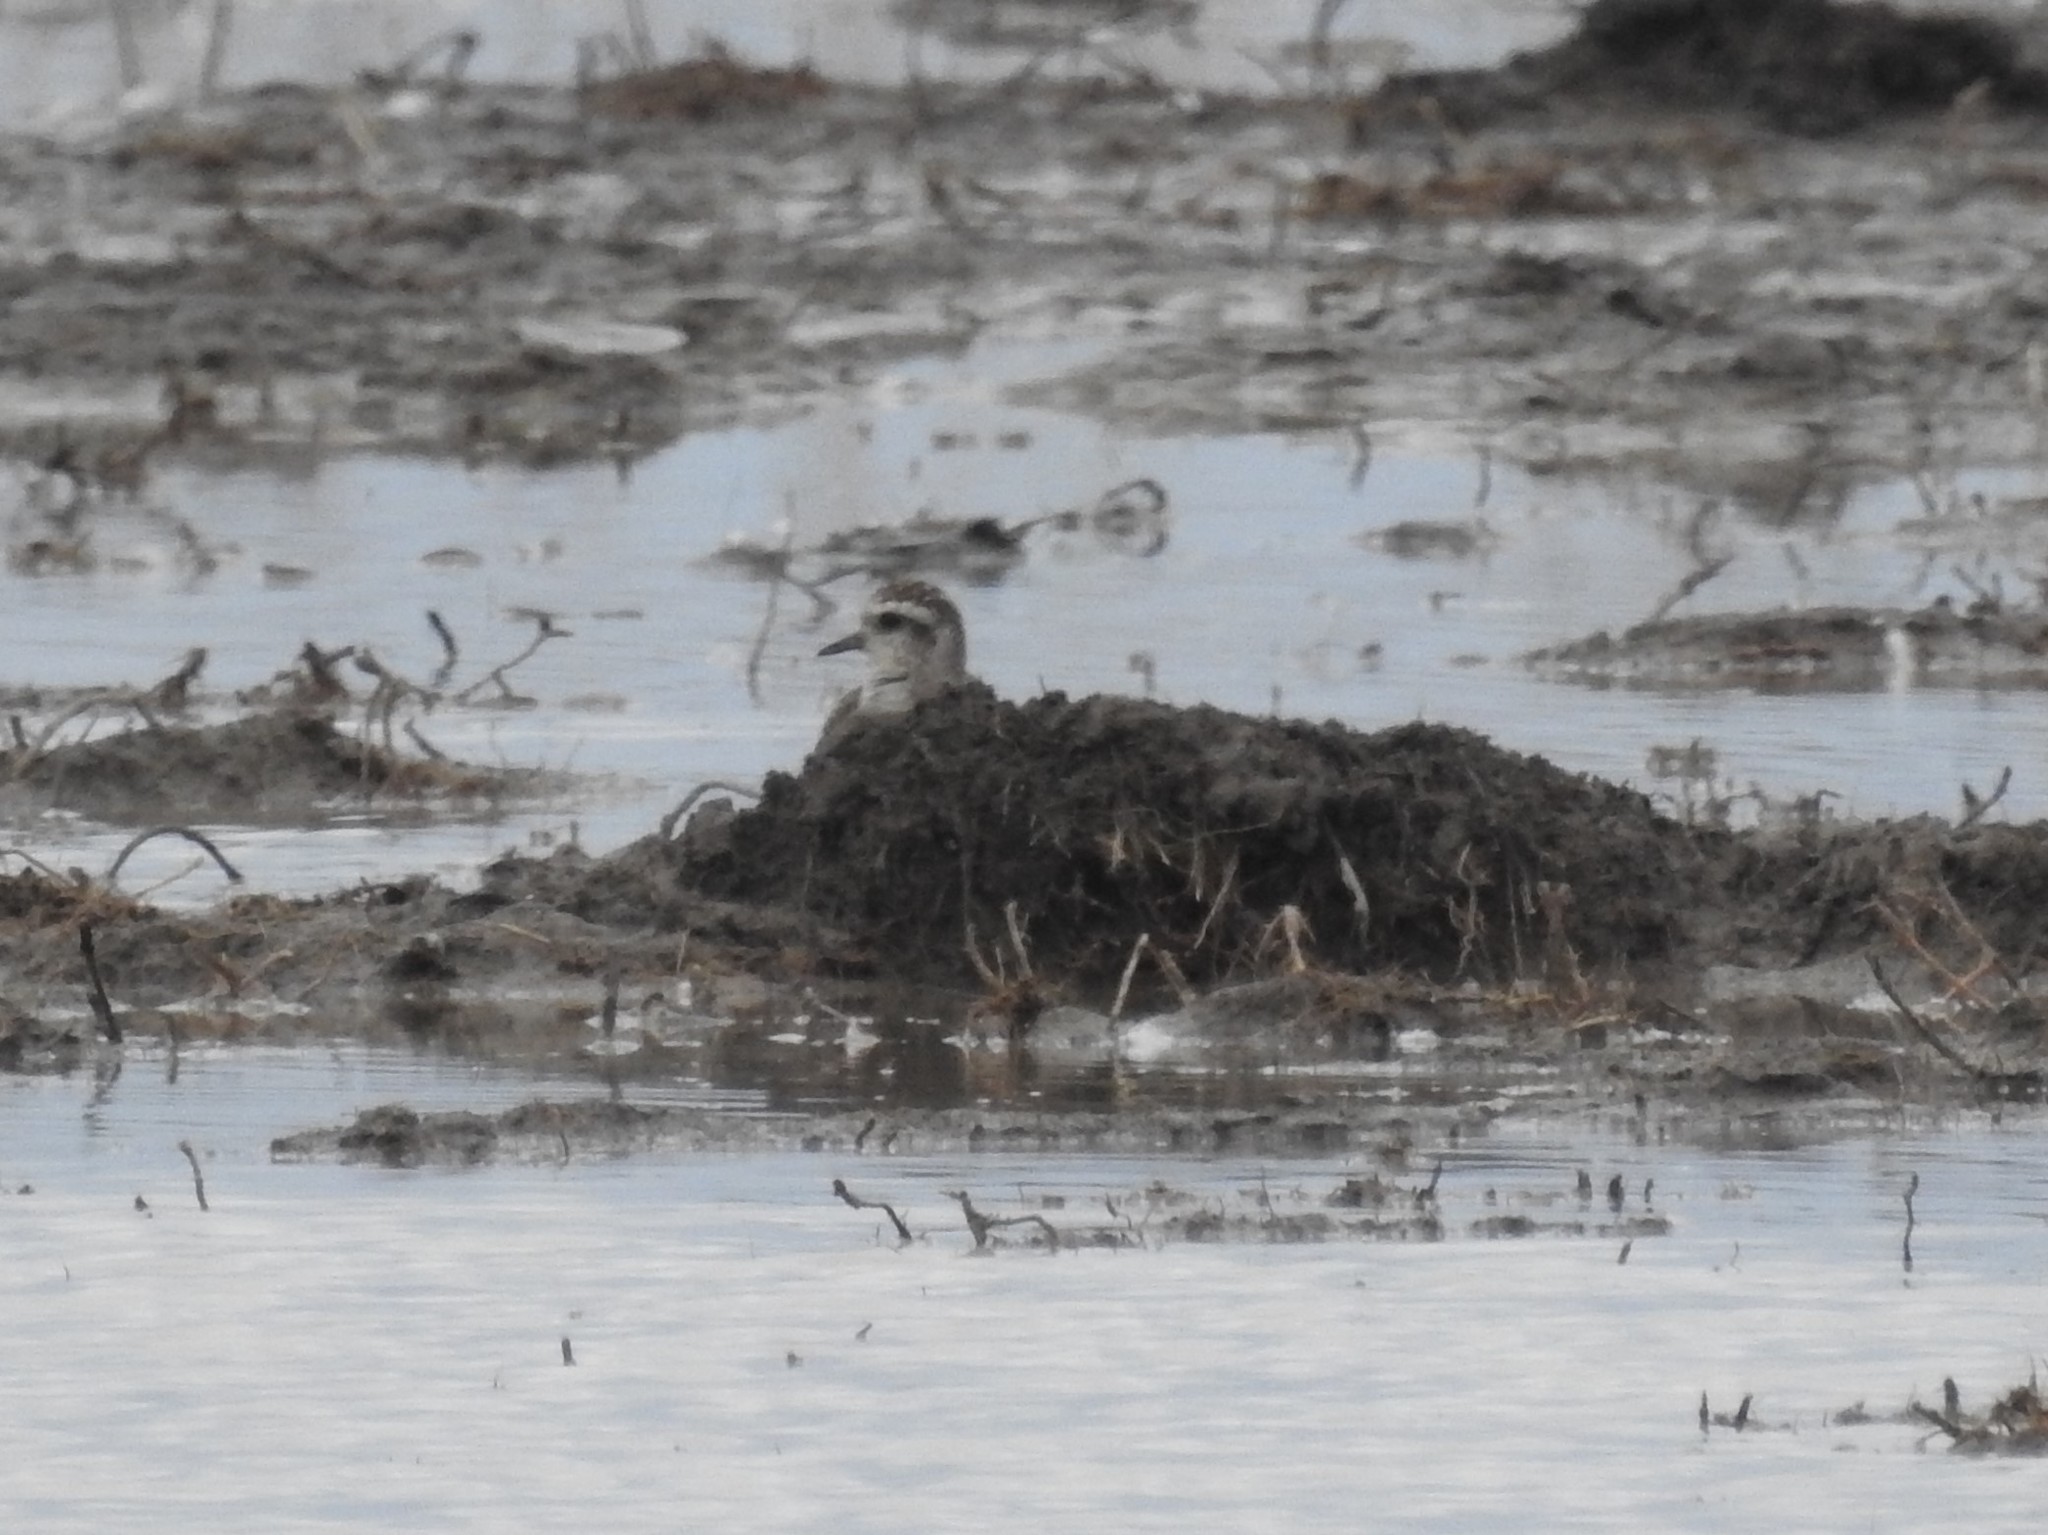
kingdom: Animalia
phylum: Chordata
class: Aves
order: Charadriiformes
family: Charadriidae
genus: Pluvialis
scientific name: Pluvialis dominica
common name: American golden plover
